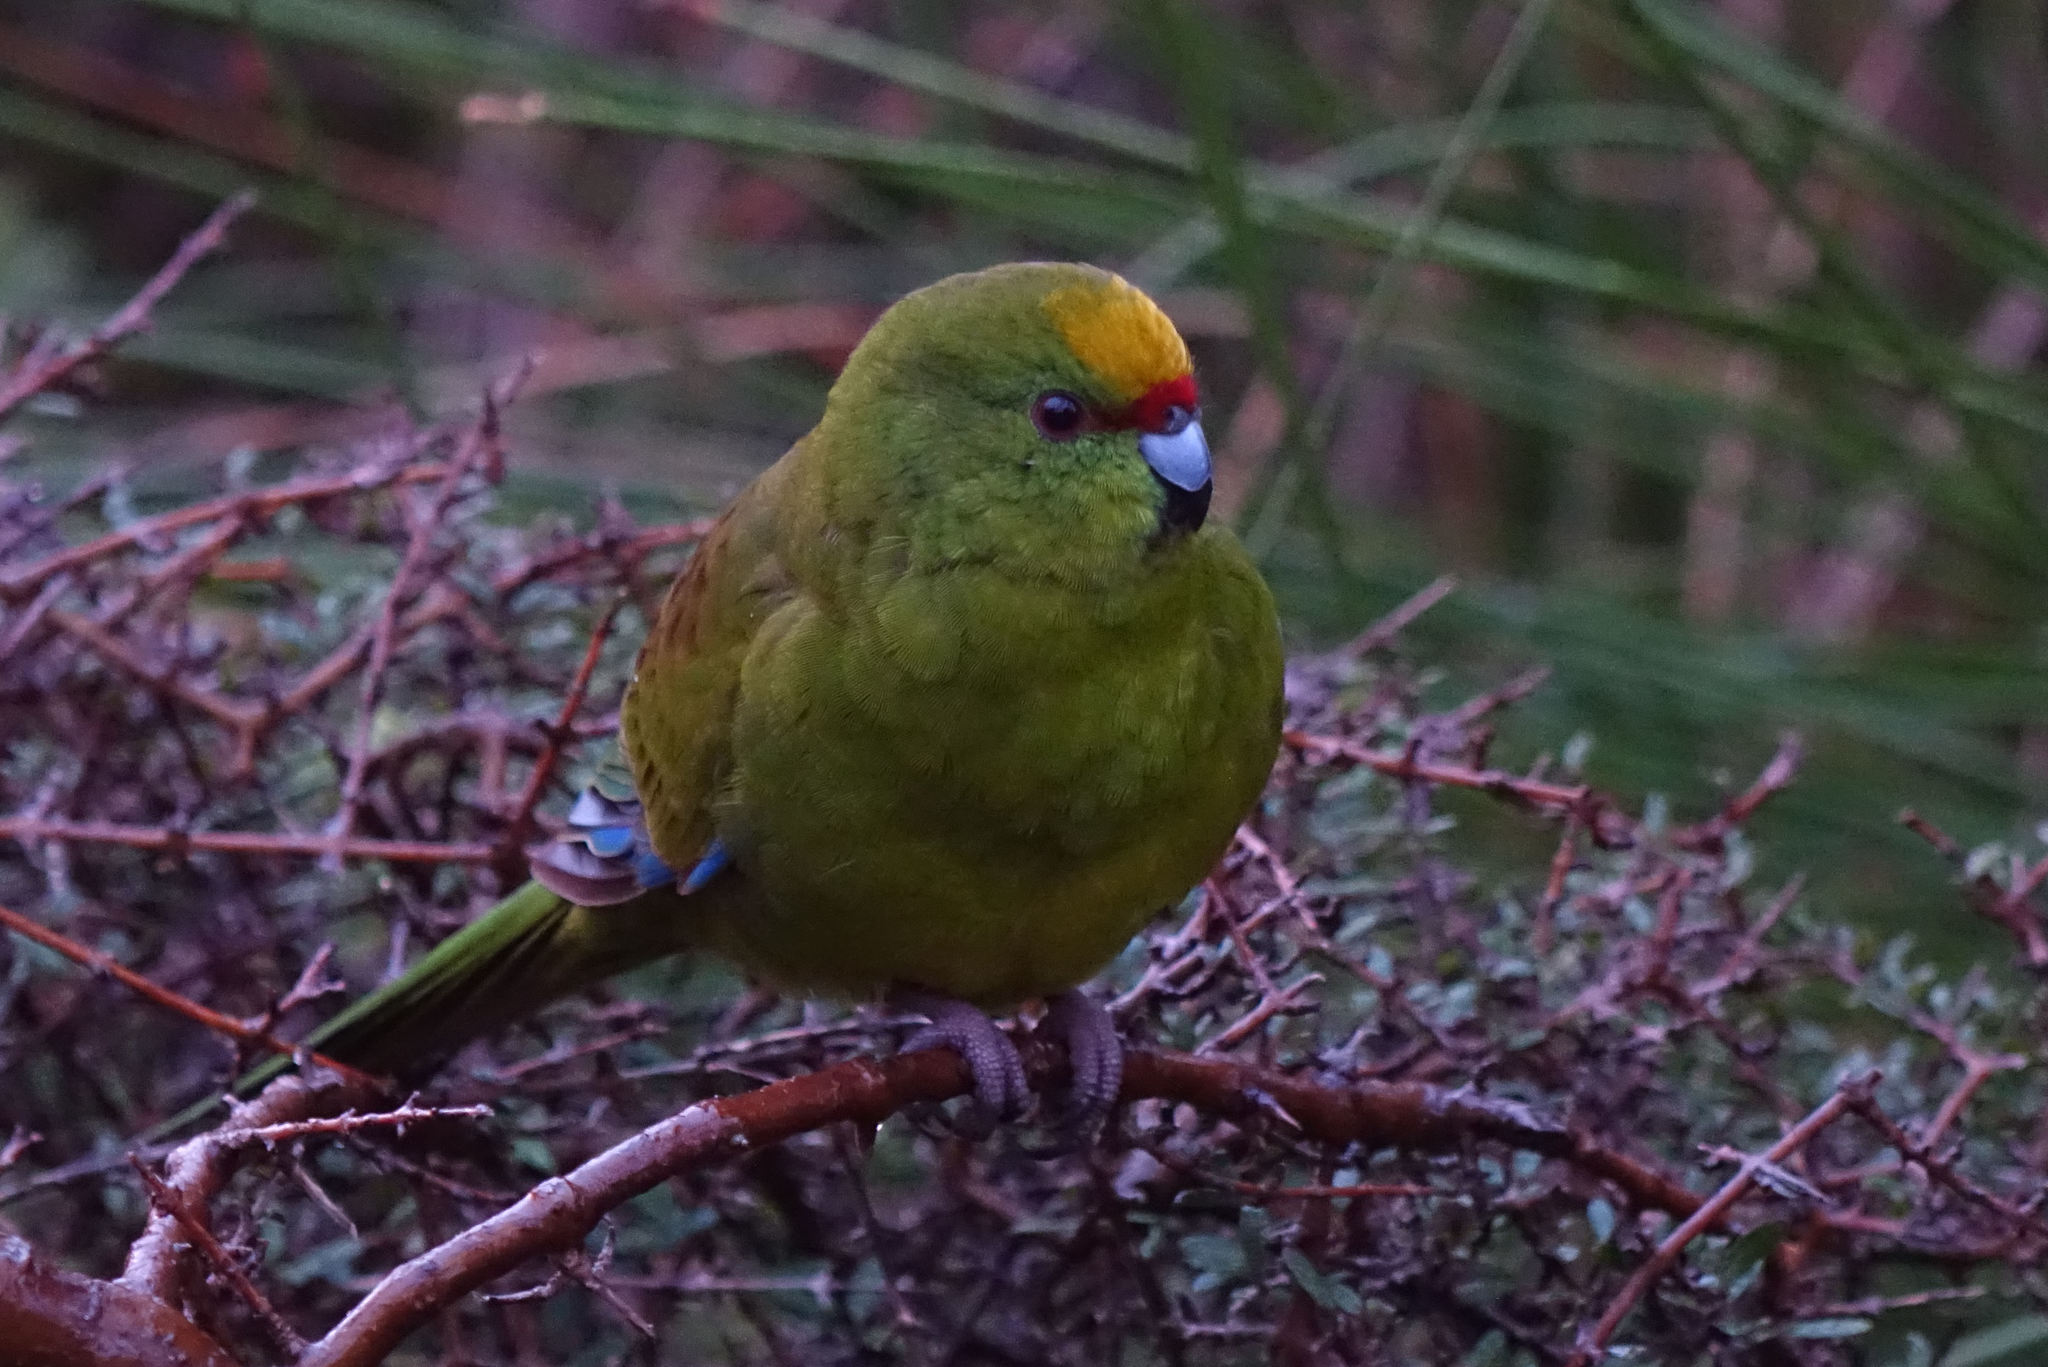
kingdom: Animalia
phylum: Chordata
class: Aves
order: Psittaciformes
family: Psittacidae
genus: Cyanoramphus
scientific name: Cyanoramphus auriceps
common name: Yellow-crowned parakeet
